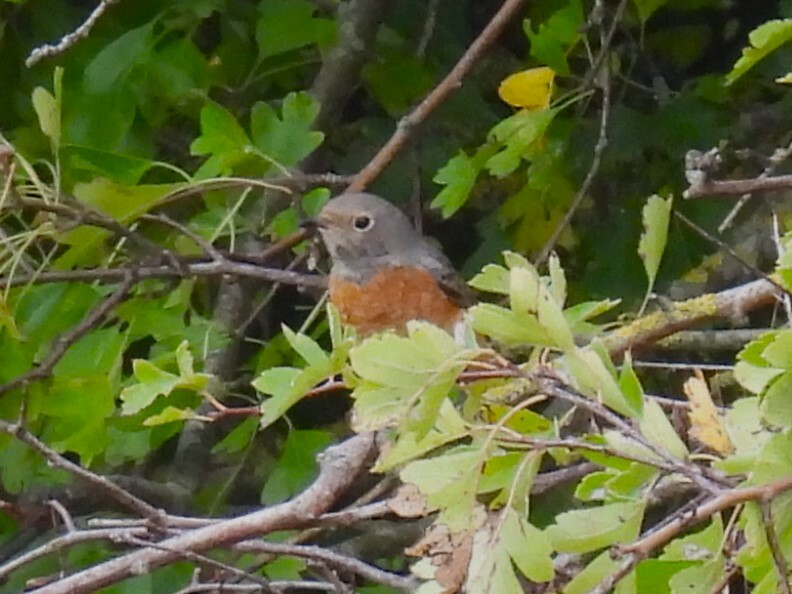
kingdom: Animalia
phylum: Chordata
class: Aves
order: Passeriformes
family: Muscicapidae
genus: Phoenicurus
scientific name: Phoenicurus phoenicurus
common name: Common redstart
